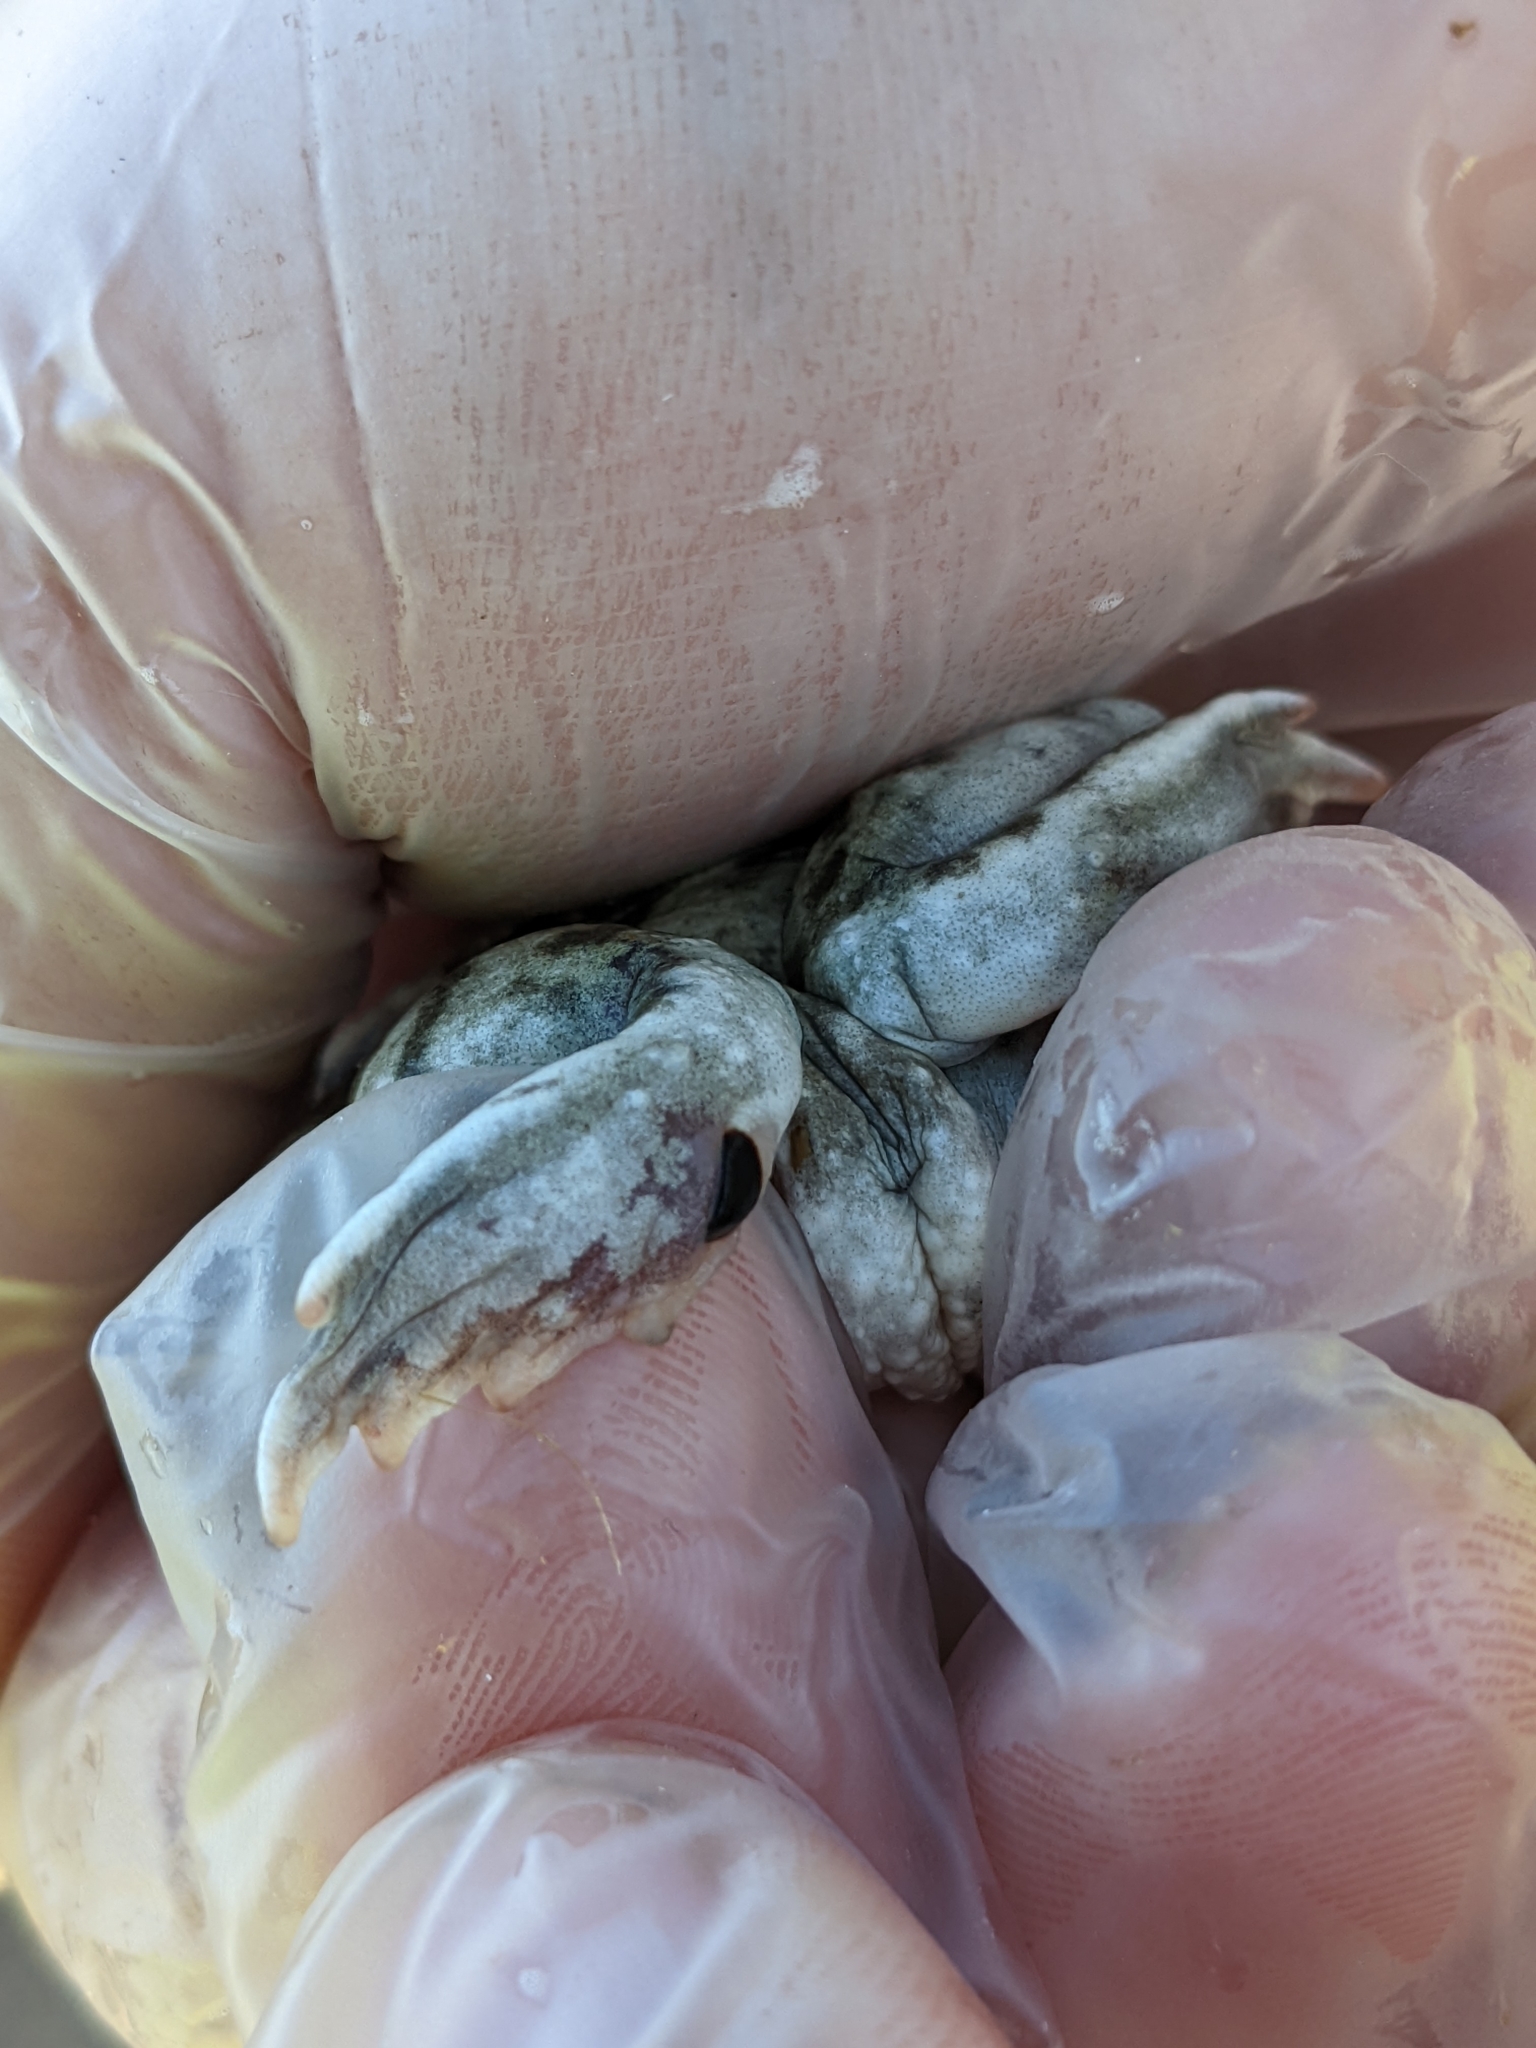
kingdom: Animalia
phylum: Chordata
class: Amphibia
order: Anura
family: Scaphiopodidae
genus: Spea
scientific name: Spea hammondii
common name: Western spadefoot toad
